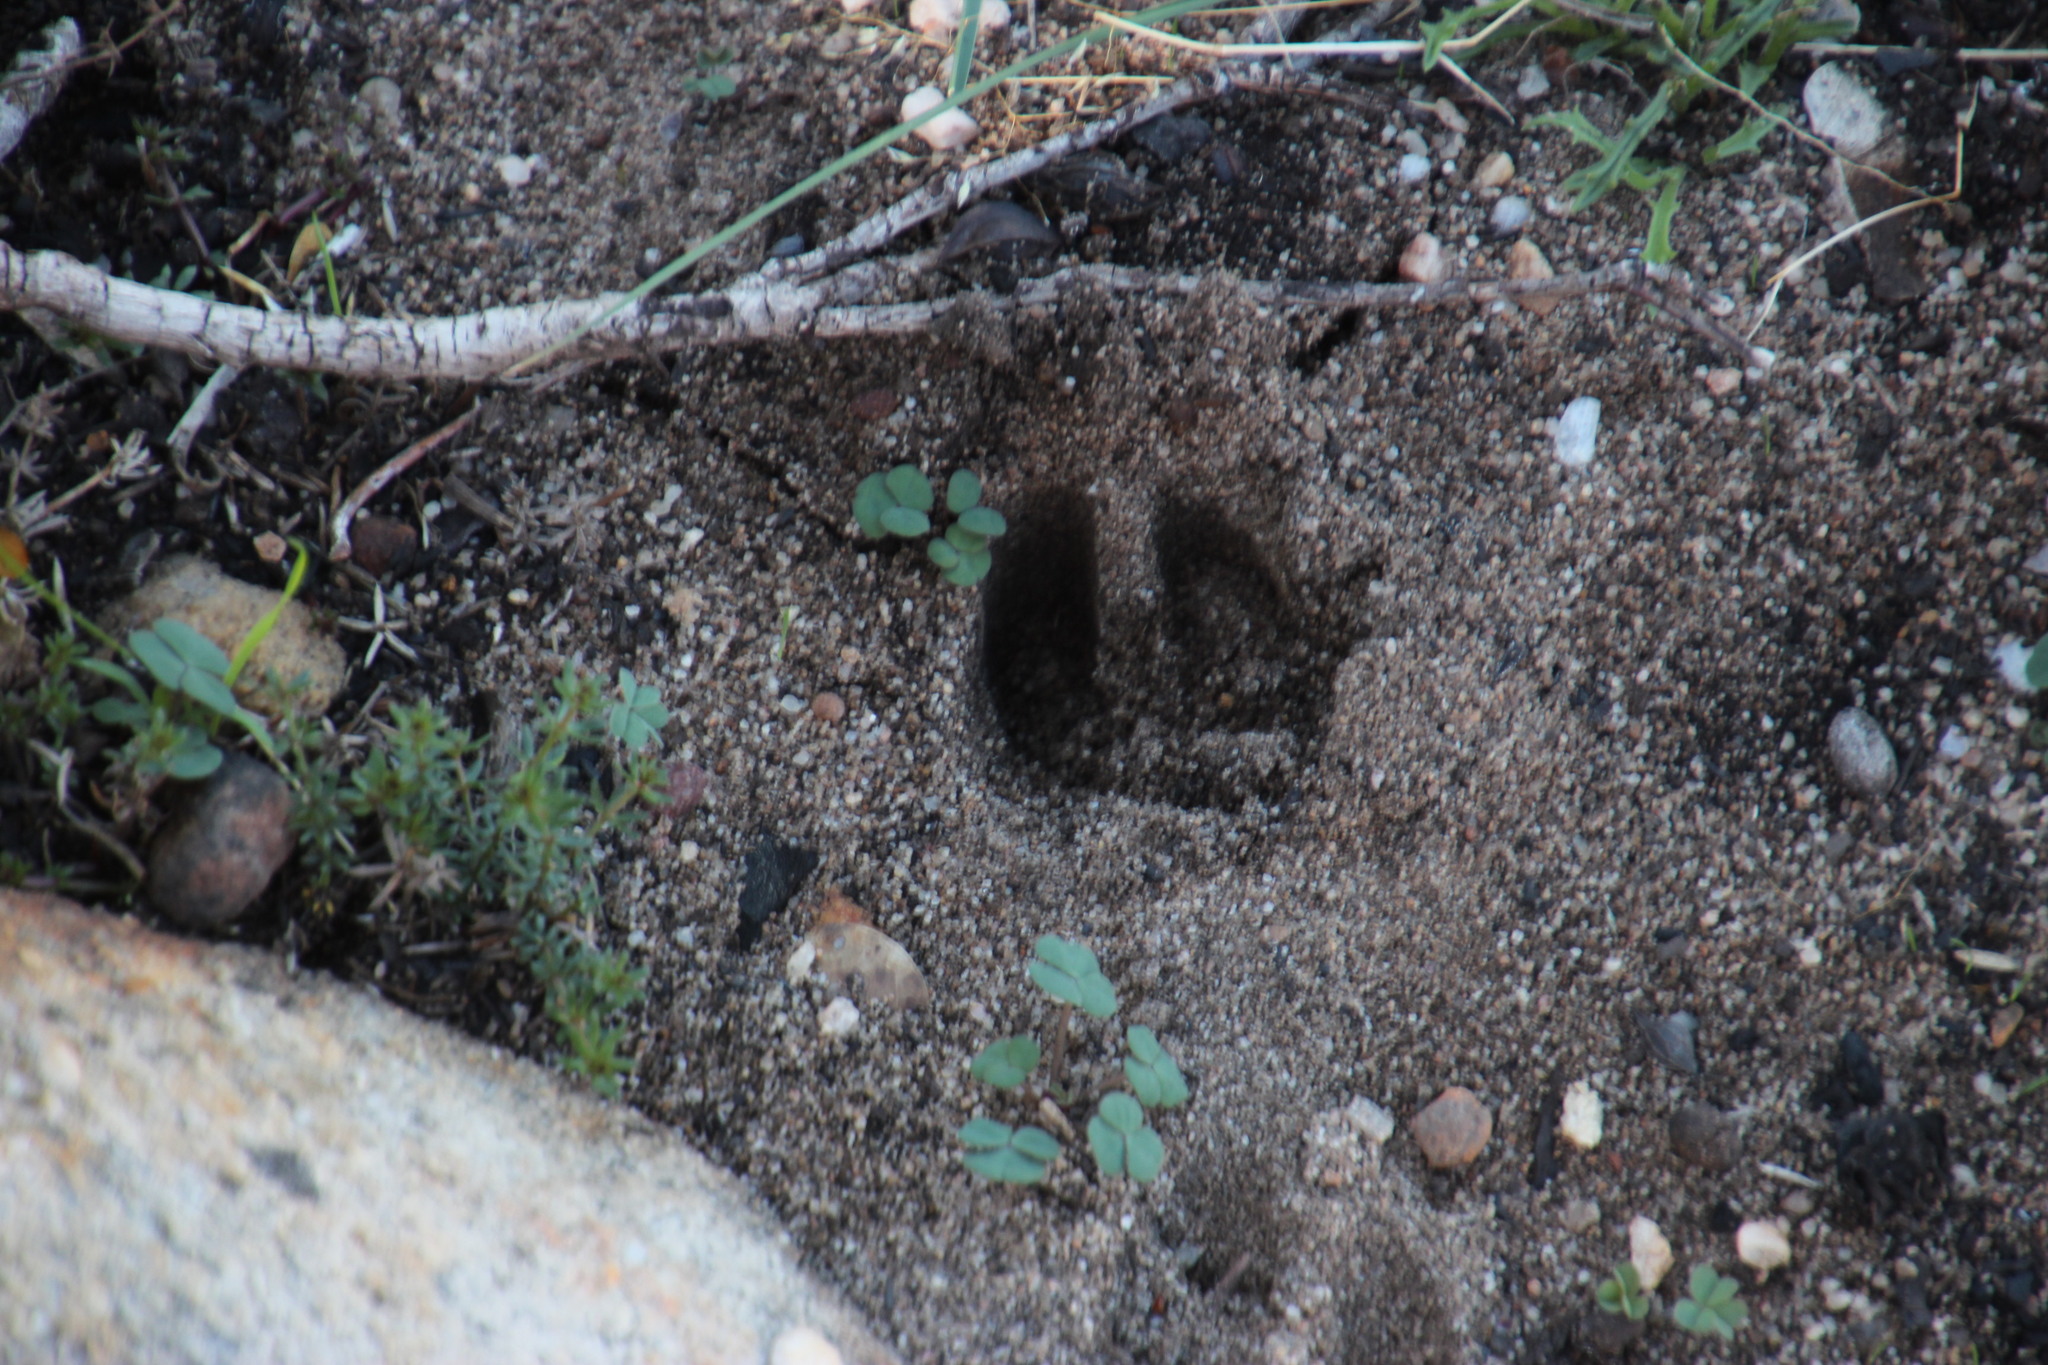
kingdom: Animalia
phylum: Chordata
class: Mammalia
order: Artiodactyla
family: Suidae
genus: Sus
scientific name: Sus scrofa
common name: Wild boar
